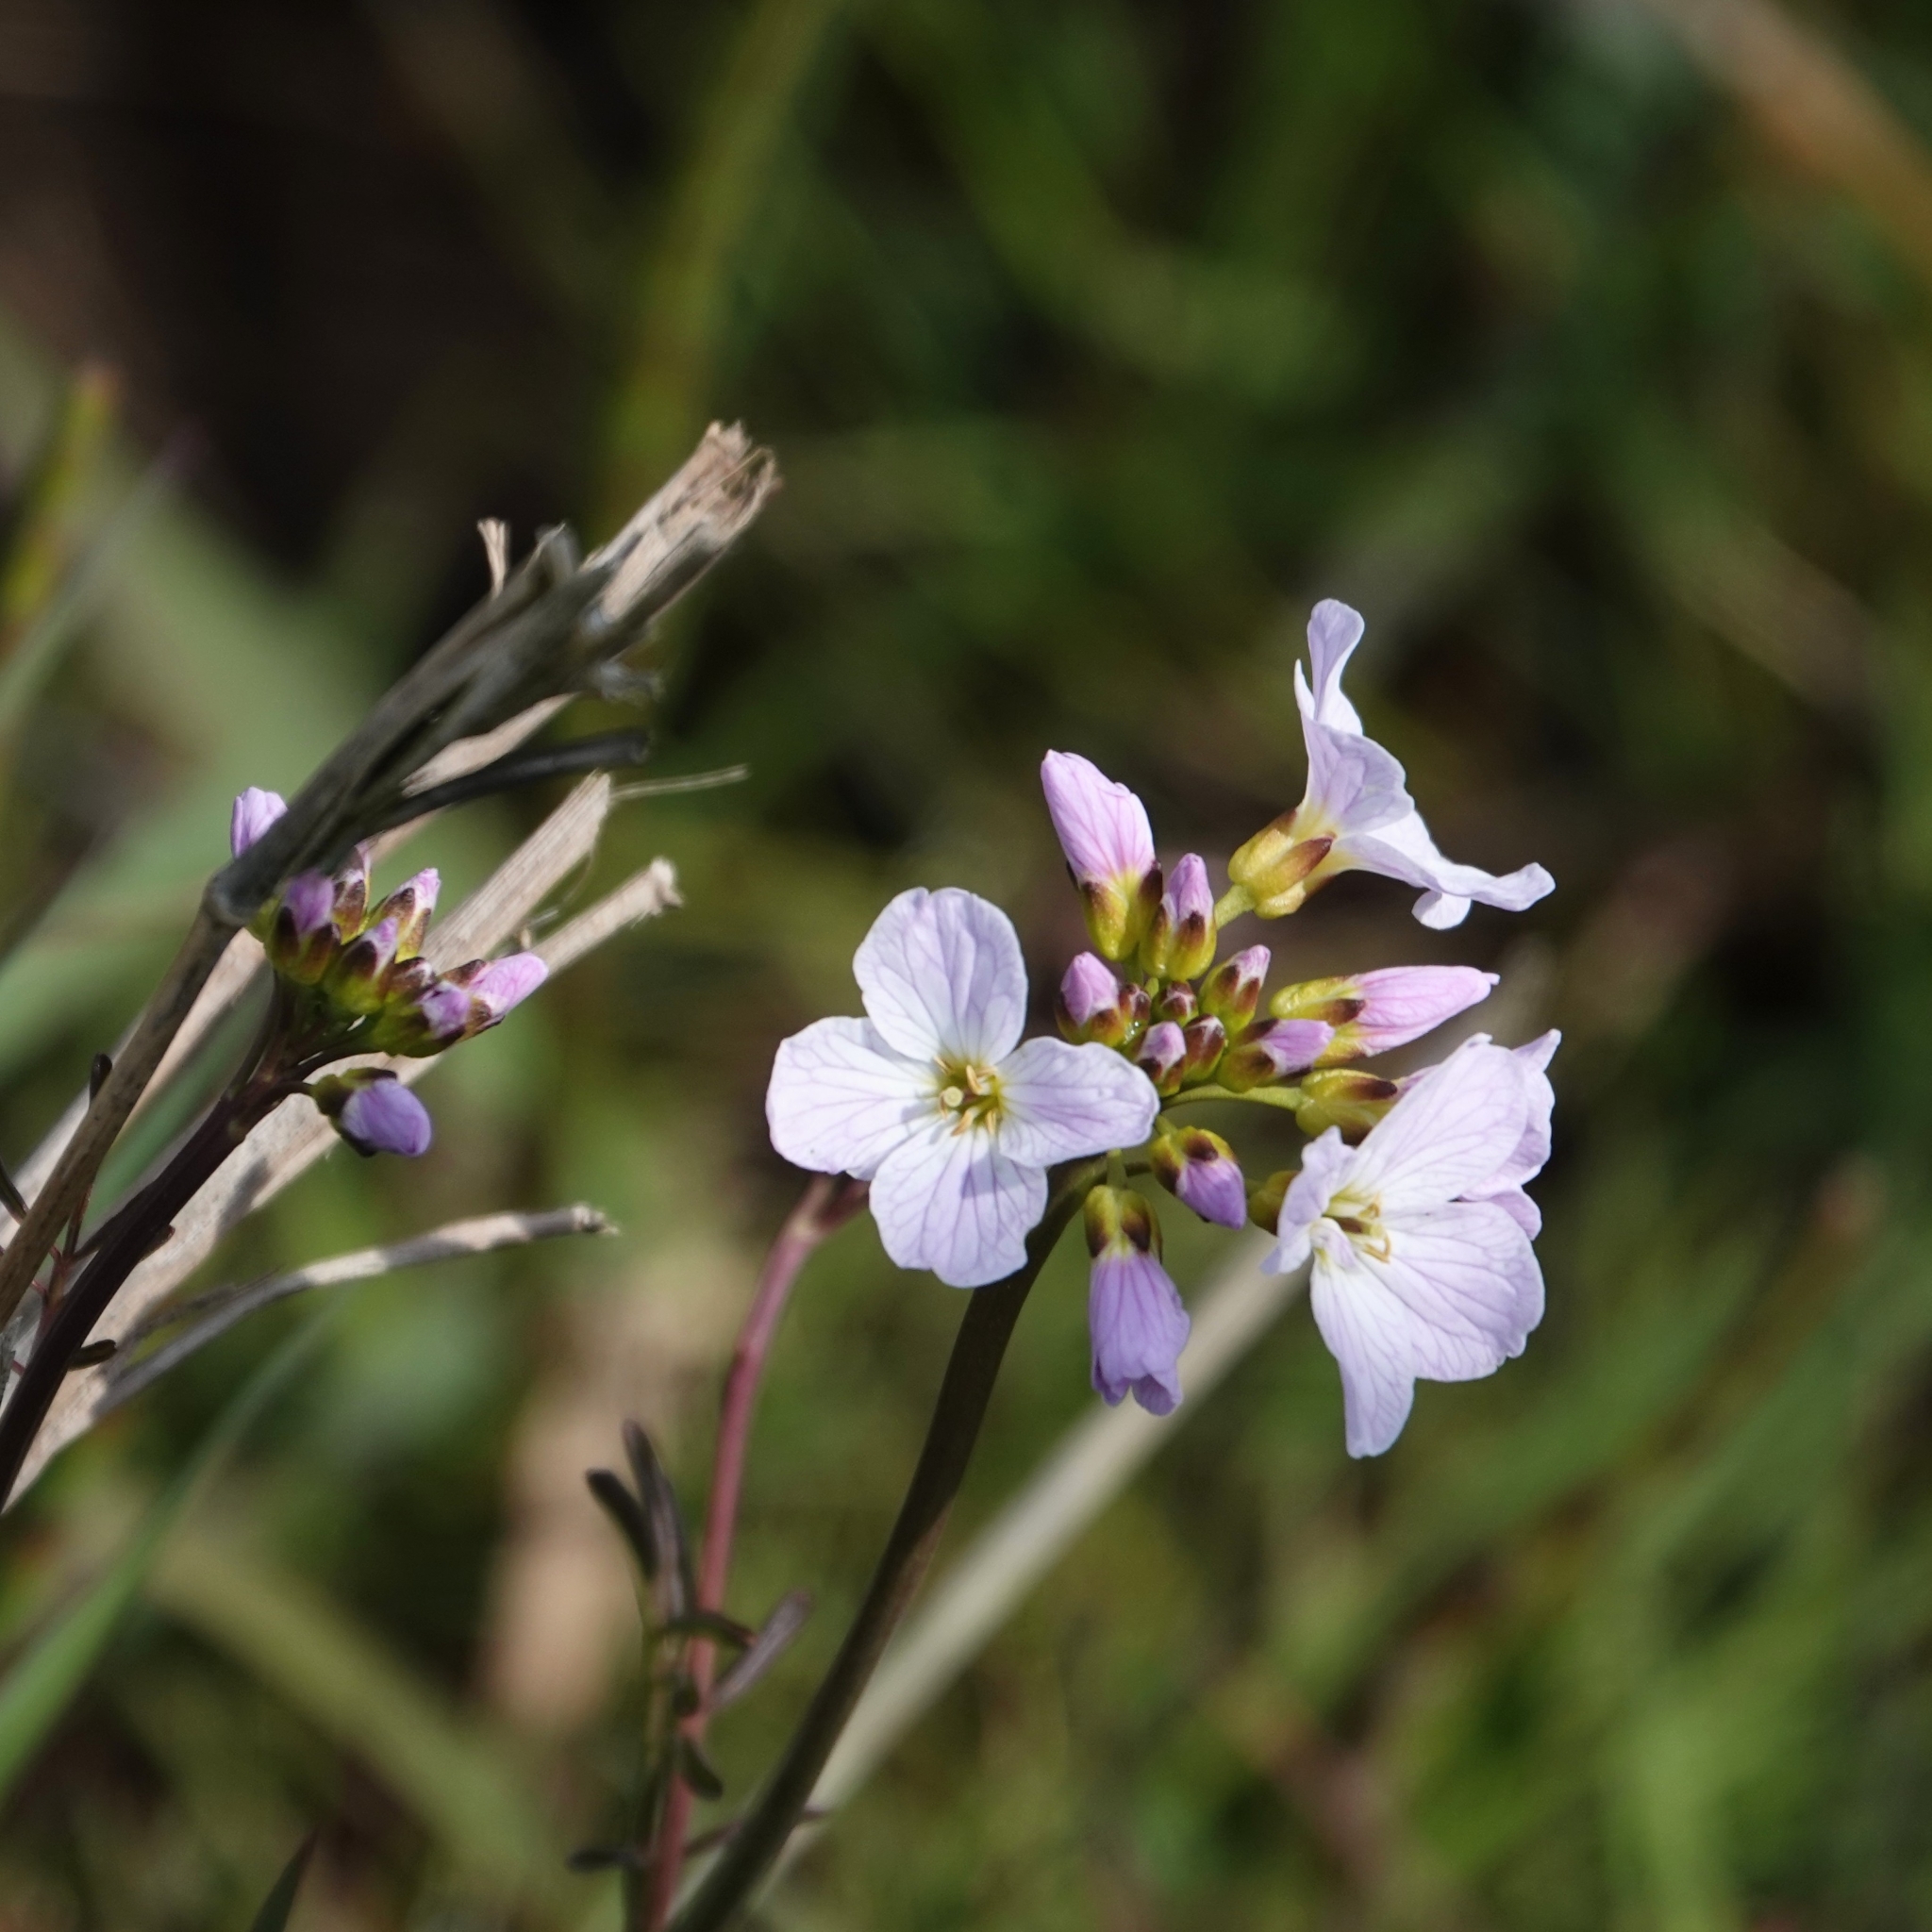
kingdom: Plantae
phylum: Tracheophyta
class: Magnoliopsida
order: Brassicales
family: Brassicaceae
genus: Cardamine
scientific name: Cardamine pratensis
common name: Cuckoo flower
